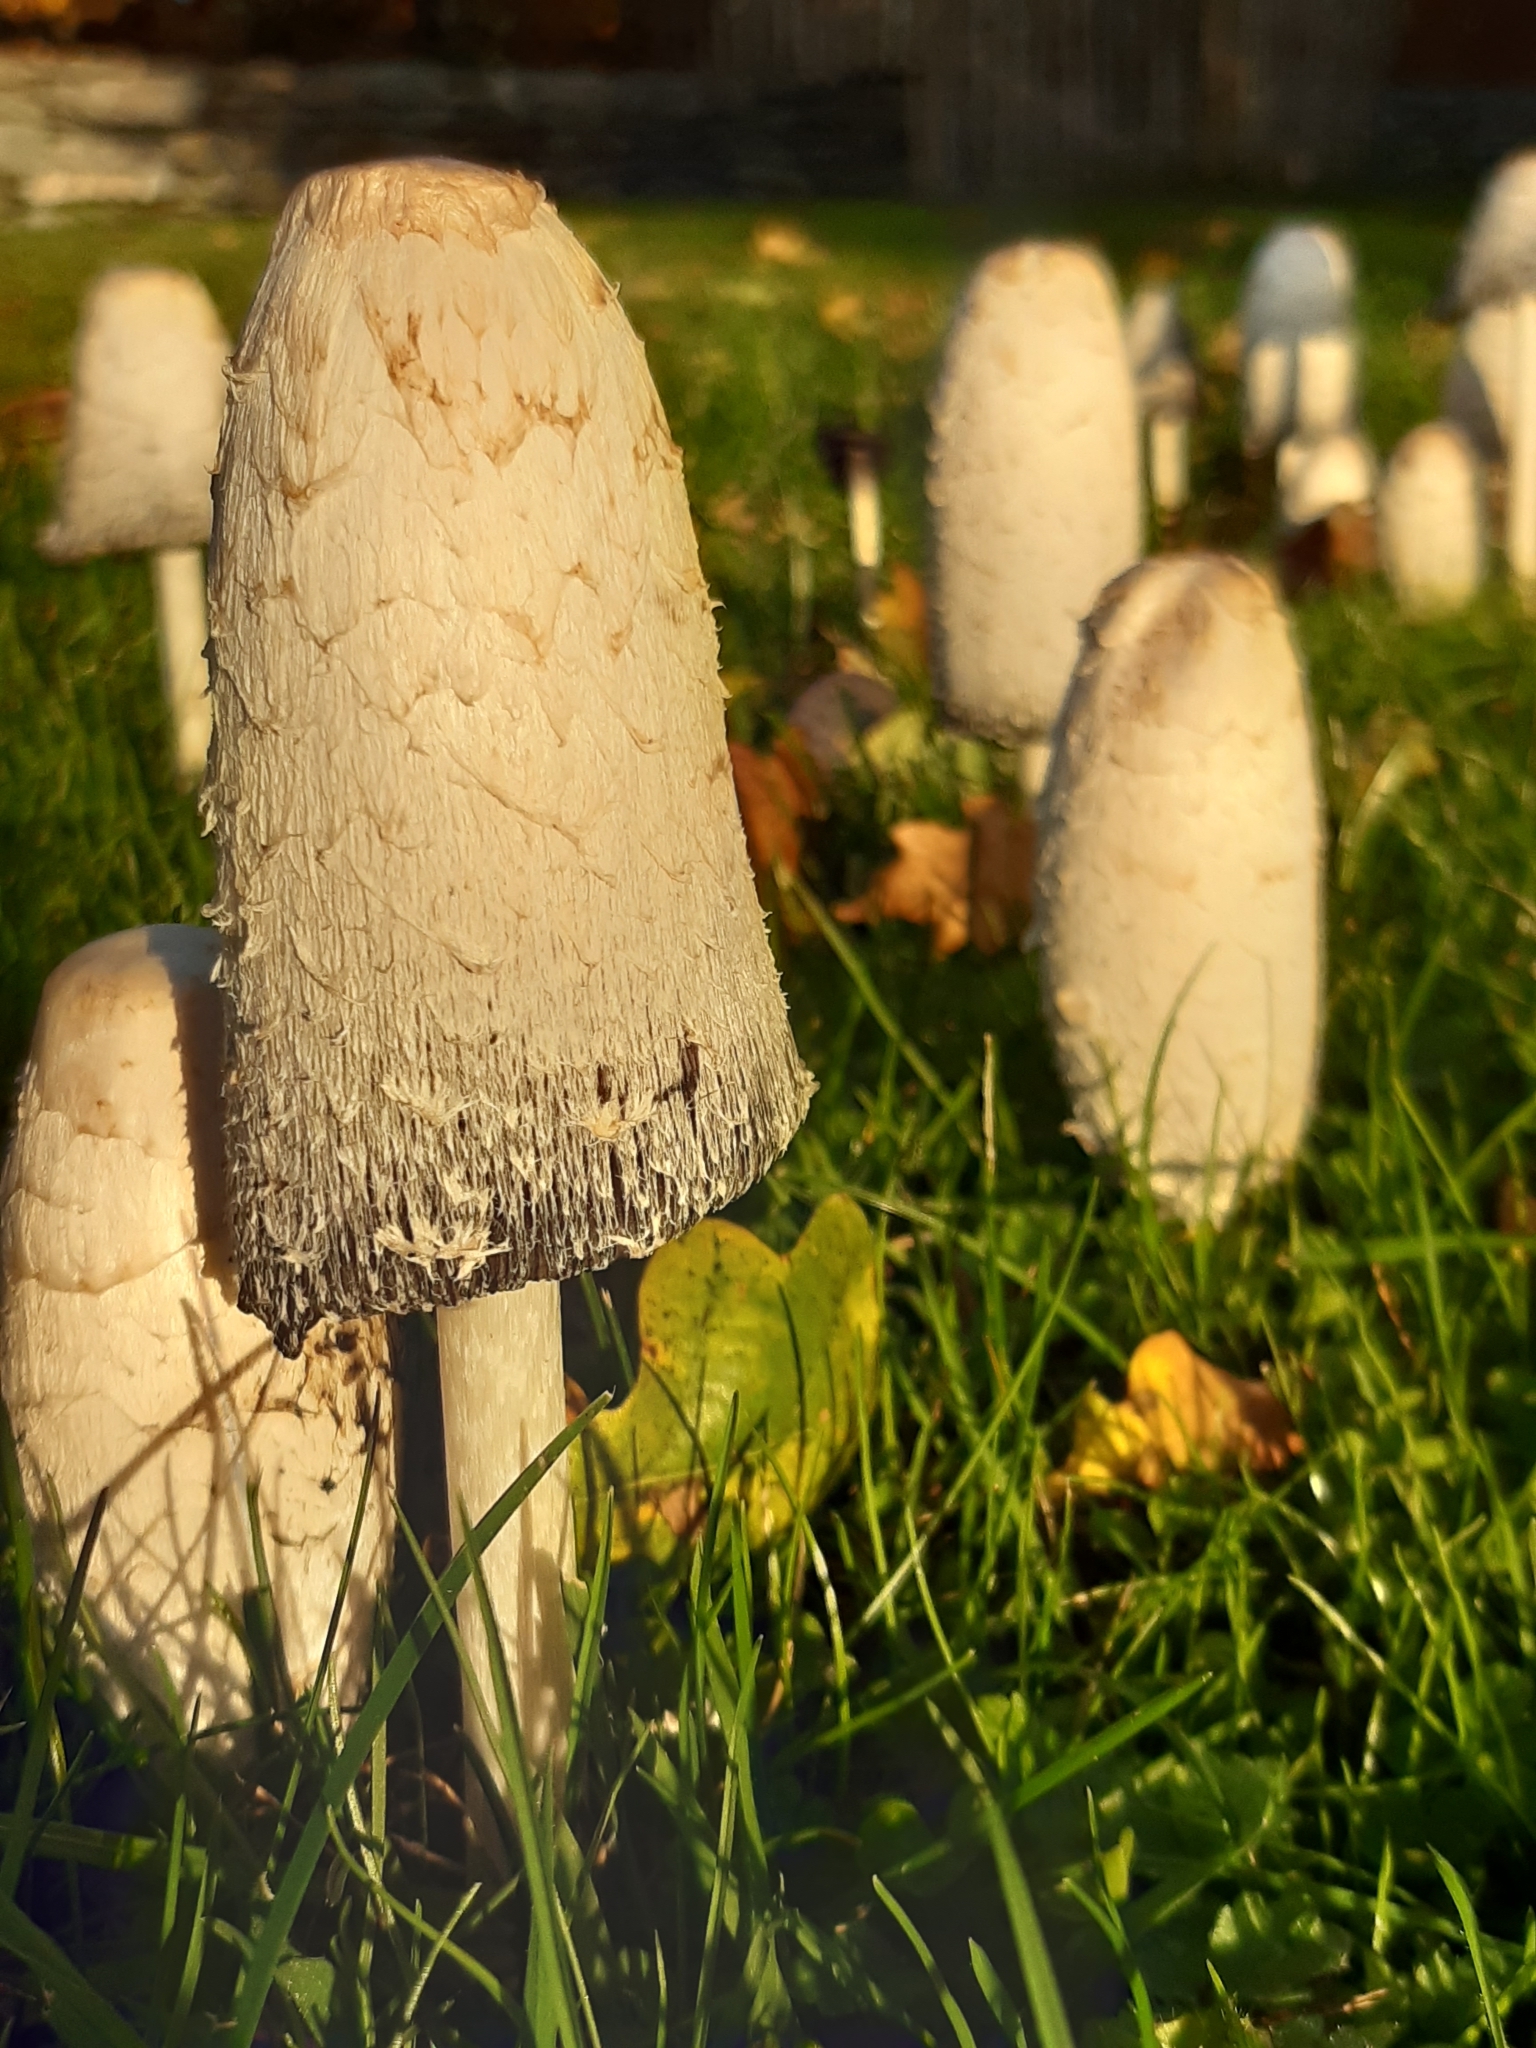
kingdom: Fungi
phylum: Basidiomycota
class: Agaricomycetes
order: Agaricales
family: Agaricaceae
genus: Coprinus
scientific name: Coprinus comatus
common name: Lawyer's wig
